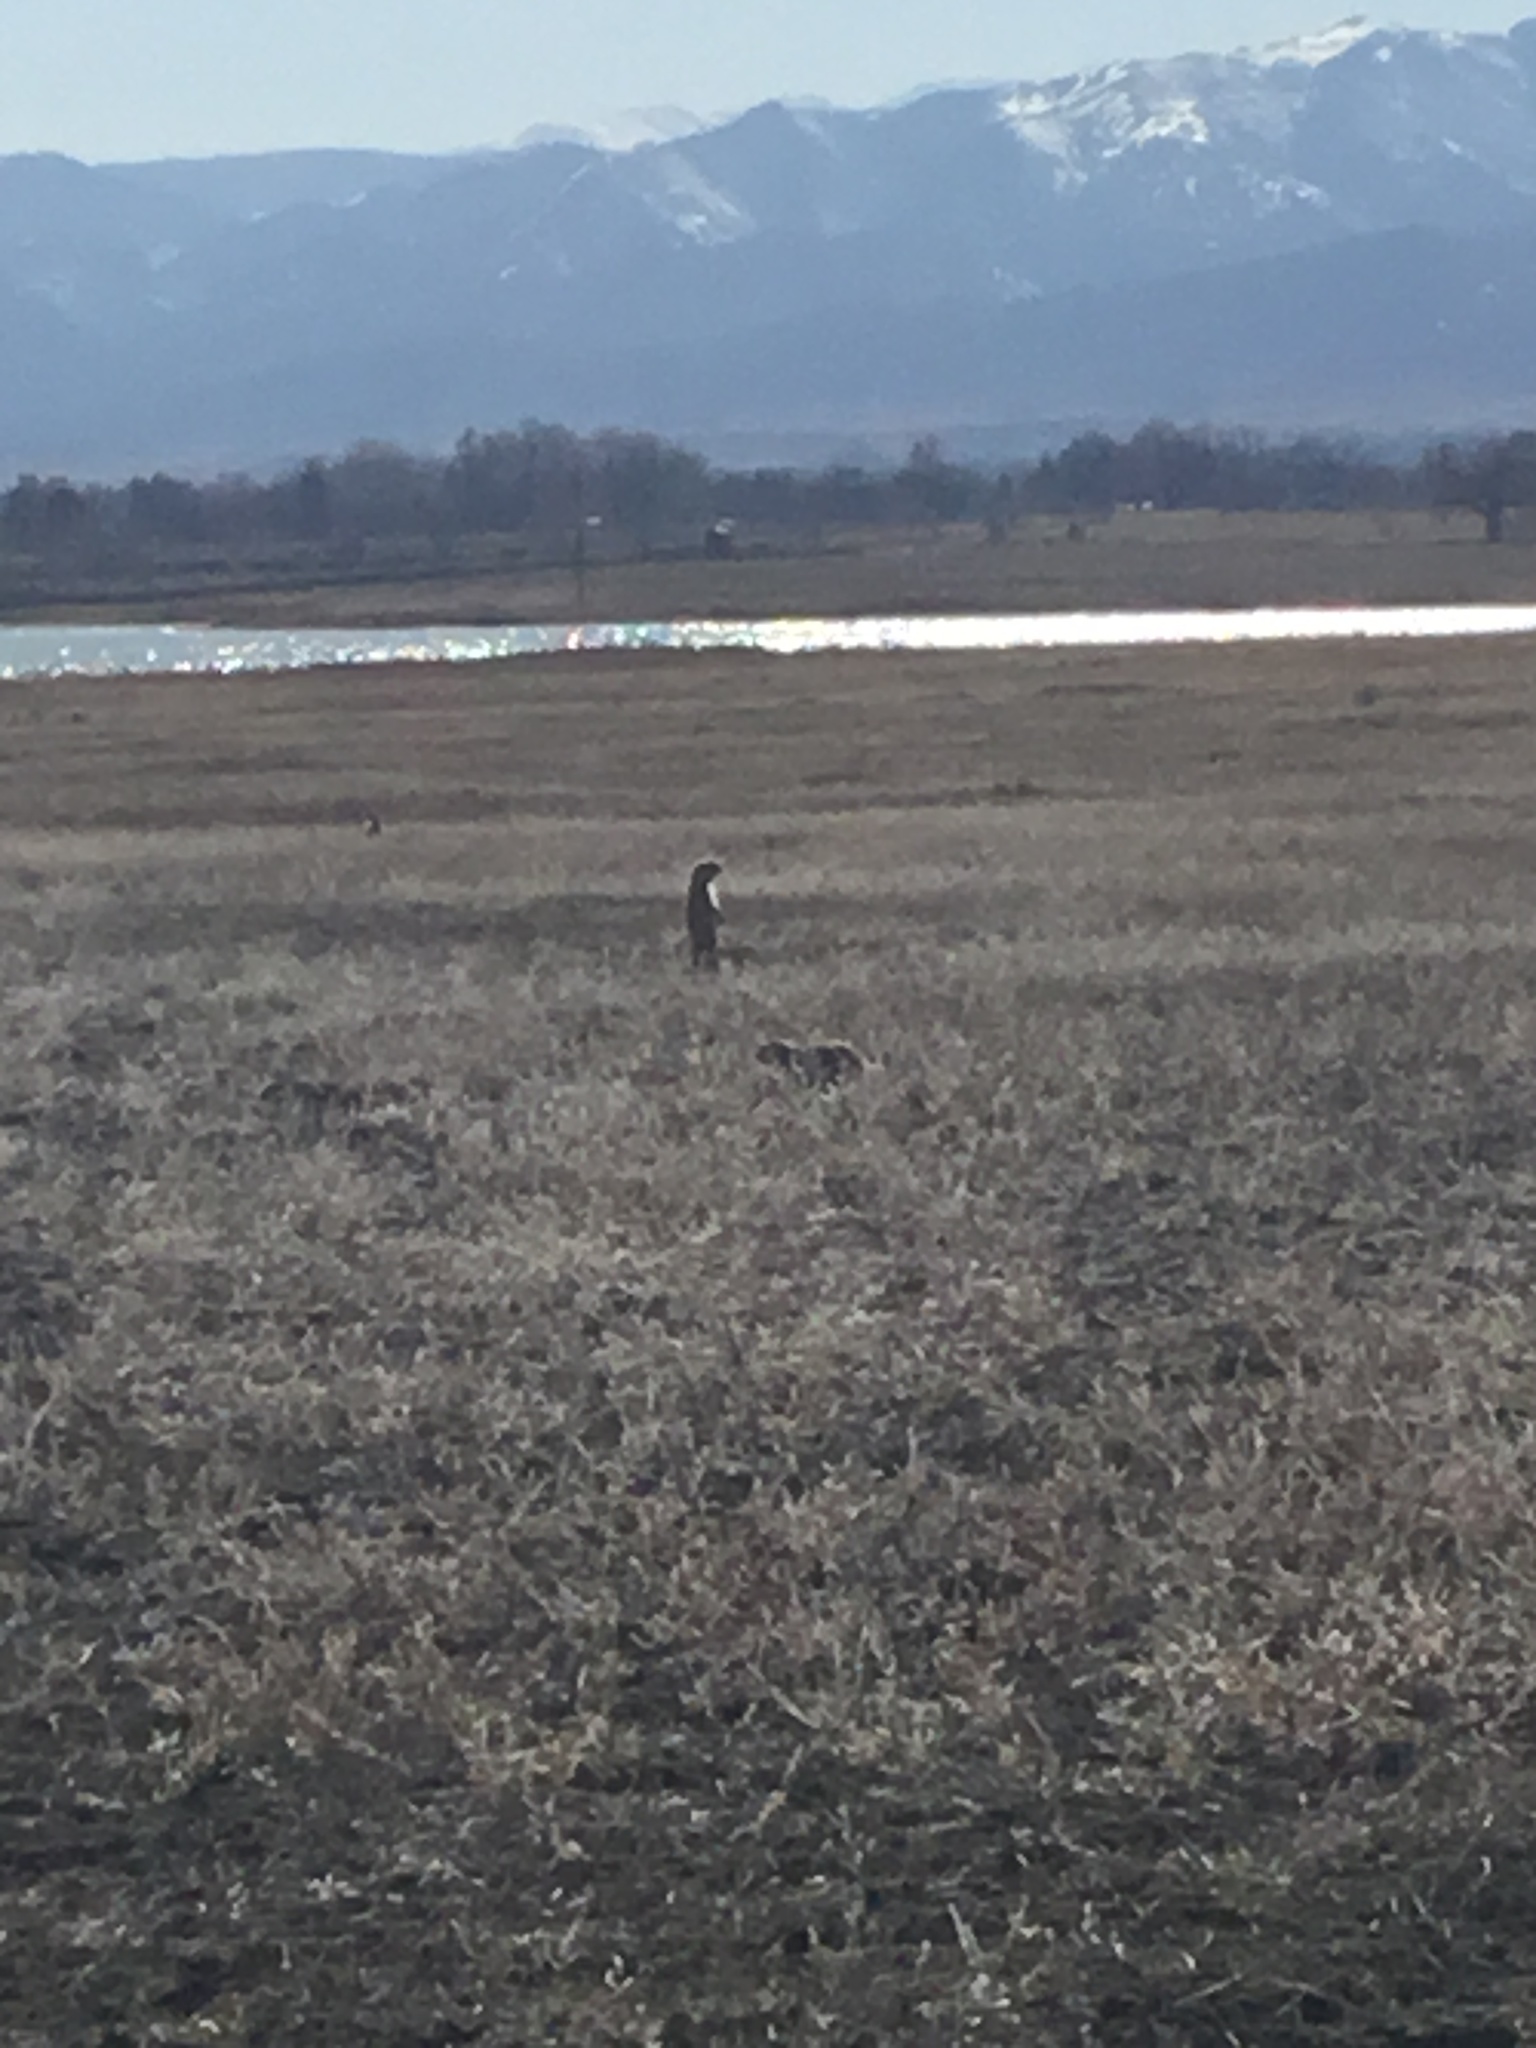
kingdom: Animalia
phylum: Chordata
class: Mammalia
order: Rodentia
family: Sciuridae
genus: Cynomys
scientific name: Cynomys ludovicianus
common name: Black-tailed prairie dog
